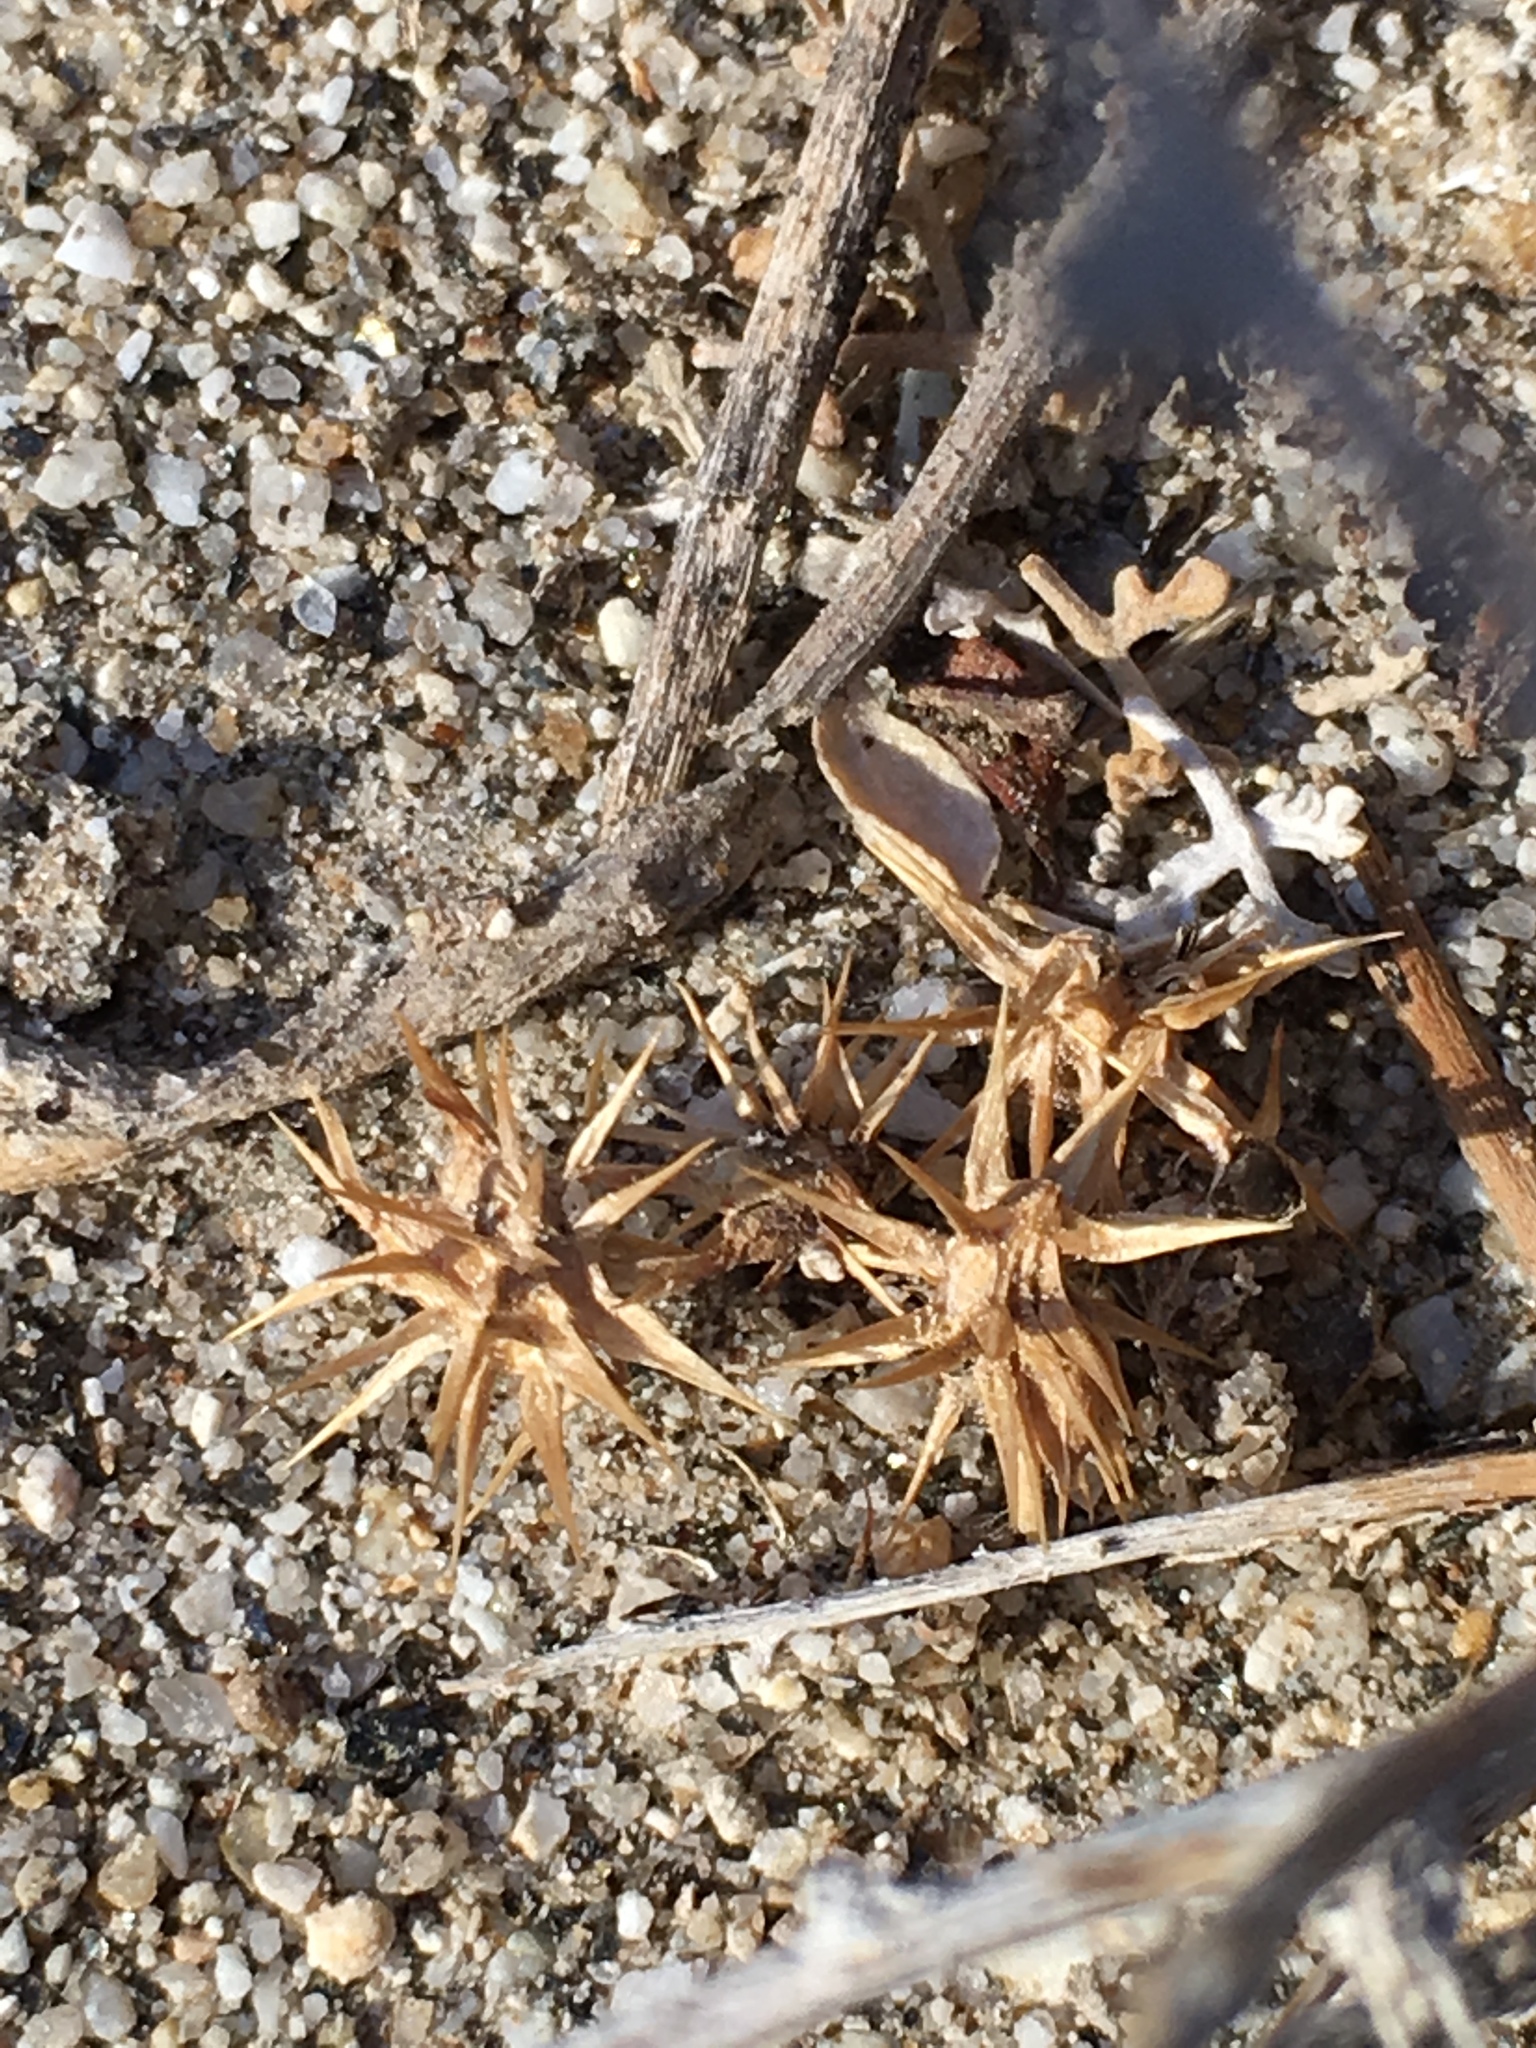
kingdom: Plantae
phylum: Tracheophyta
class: Magnoliopsida
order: Asterales
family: Asteraceae
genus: Ambrosia
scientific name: Ambrosia dumosa
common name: Bur-sage
